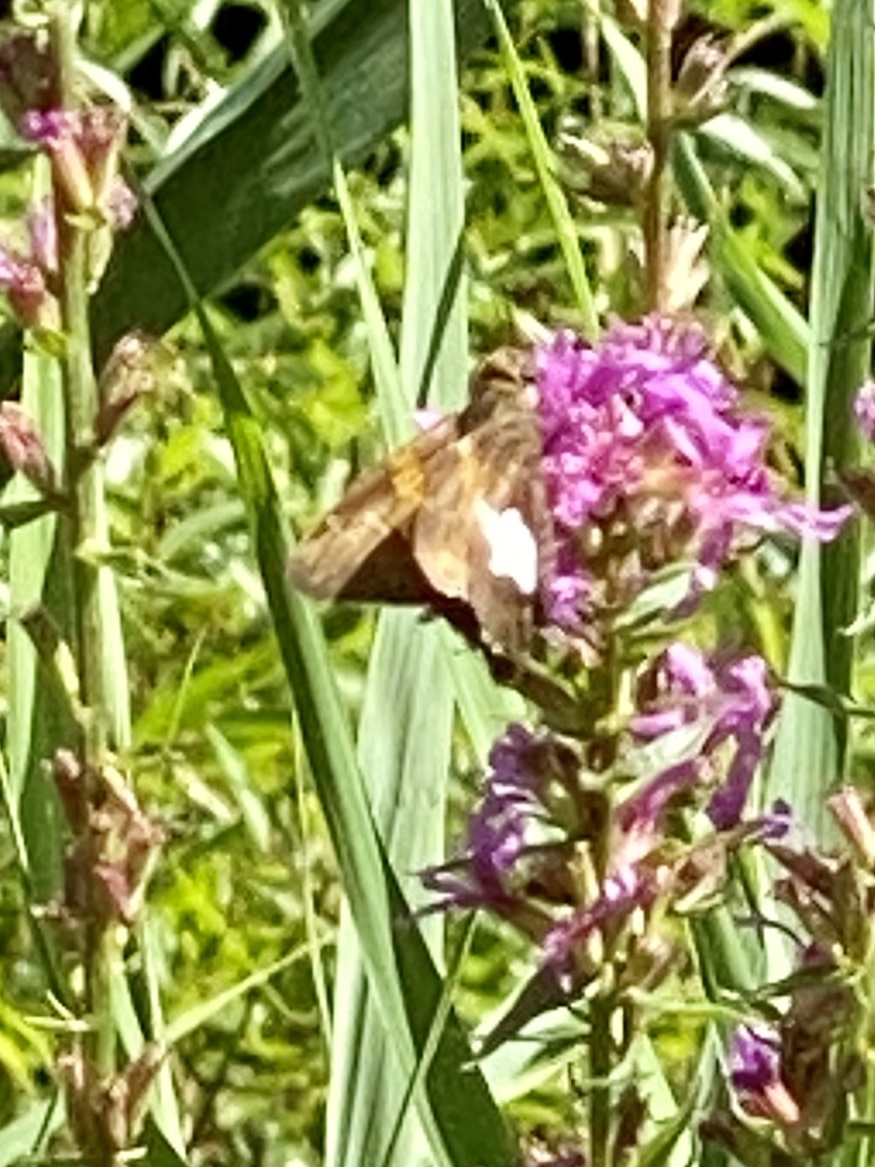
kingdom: Animalia
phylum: Arthropoda
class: Insecta
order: Lepidoptera
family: Hesperiidae
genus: Epargyreus
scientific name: Epargyreus clarus
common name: Silver-spotted skipper
